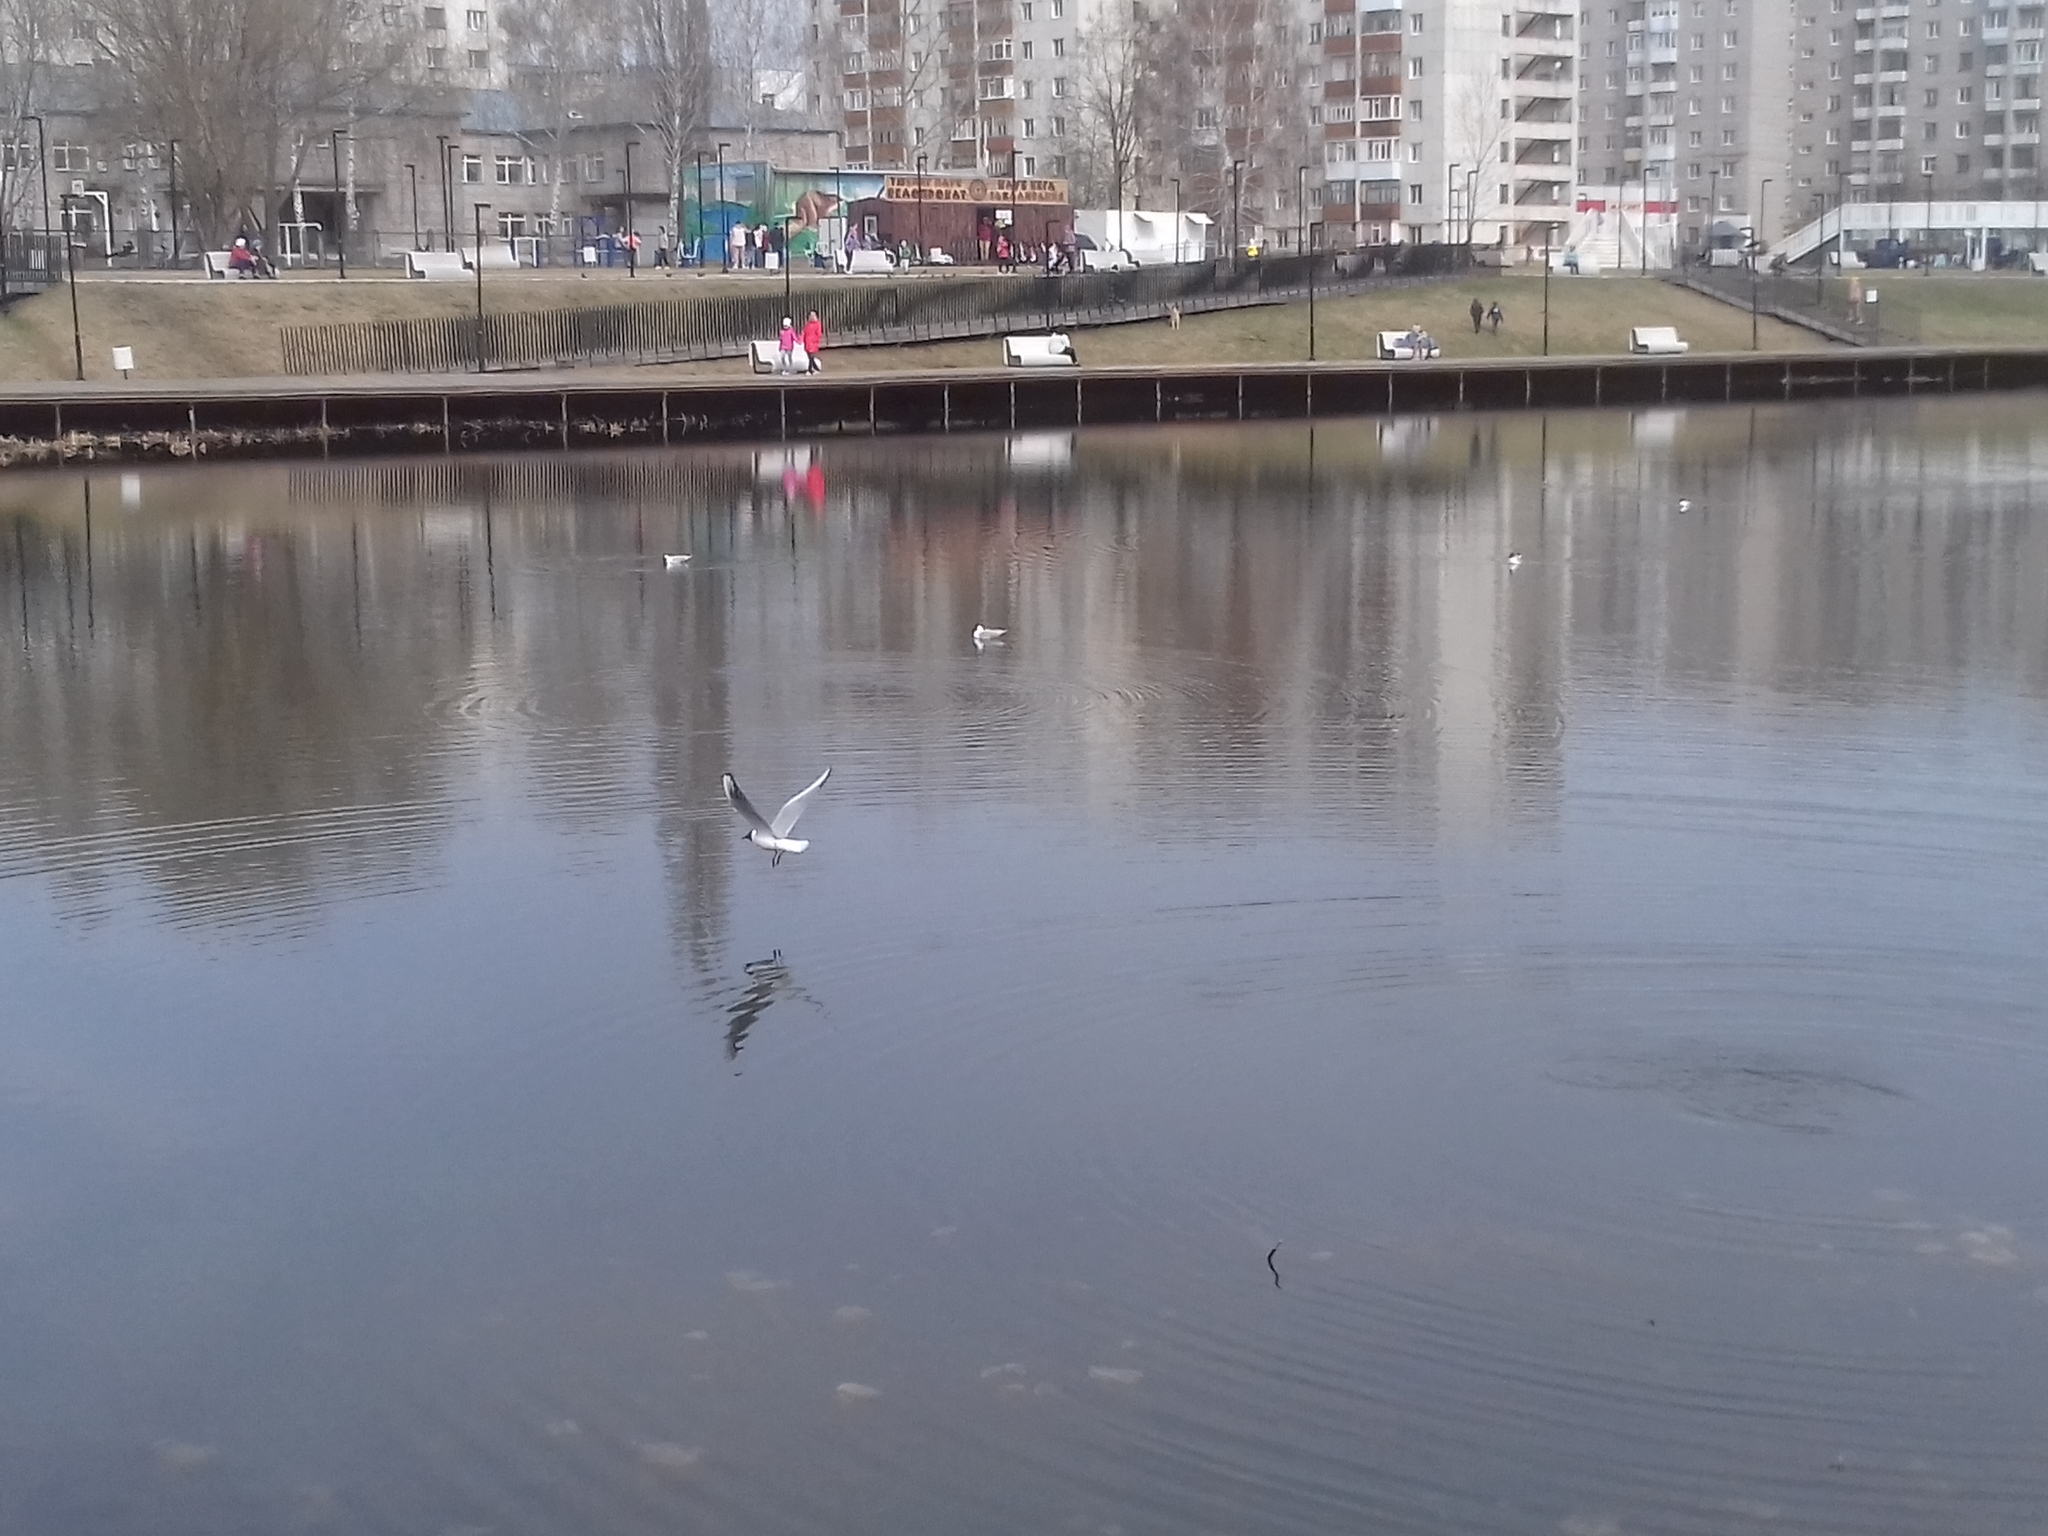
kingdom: Animalia
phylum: Chordata
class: Aves
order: Charadriiformes
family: Laridae
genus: Chroicocephalus
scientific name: Chroicocephalus ridibundus
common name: Black-headed gull
